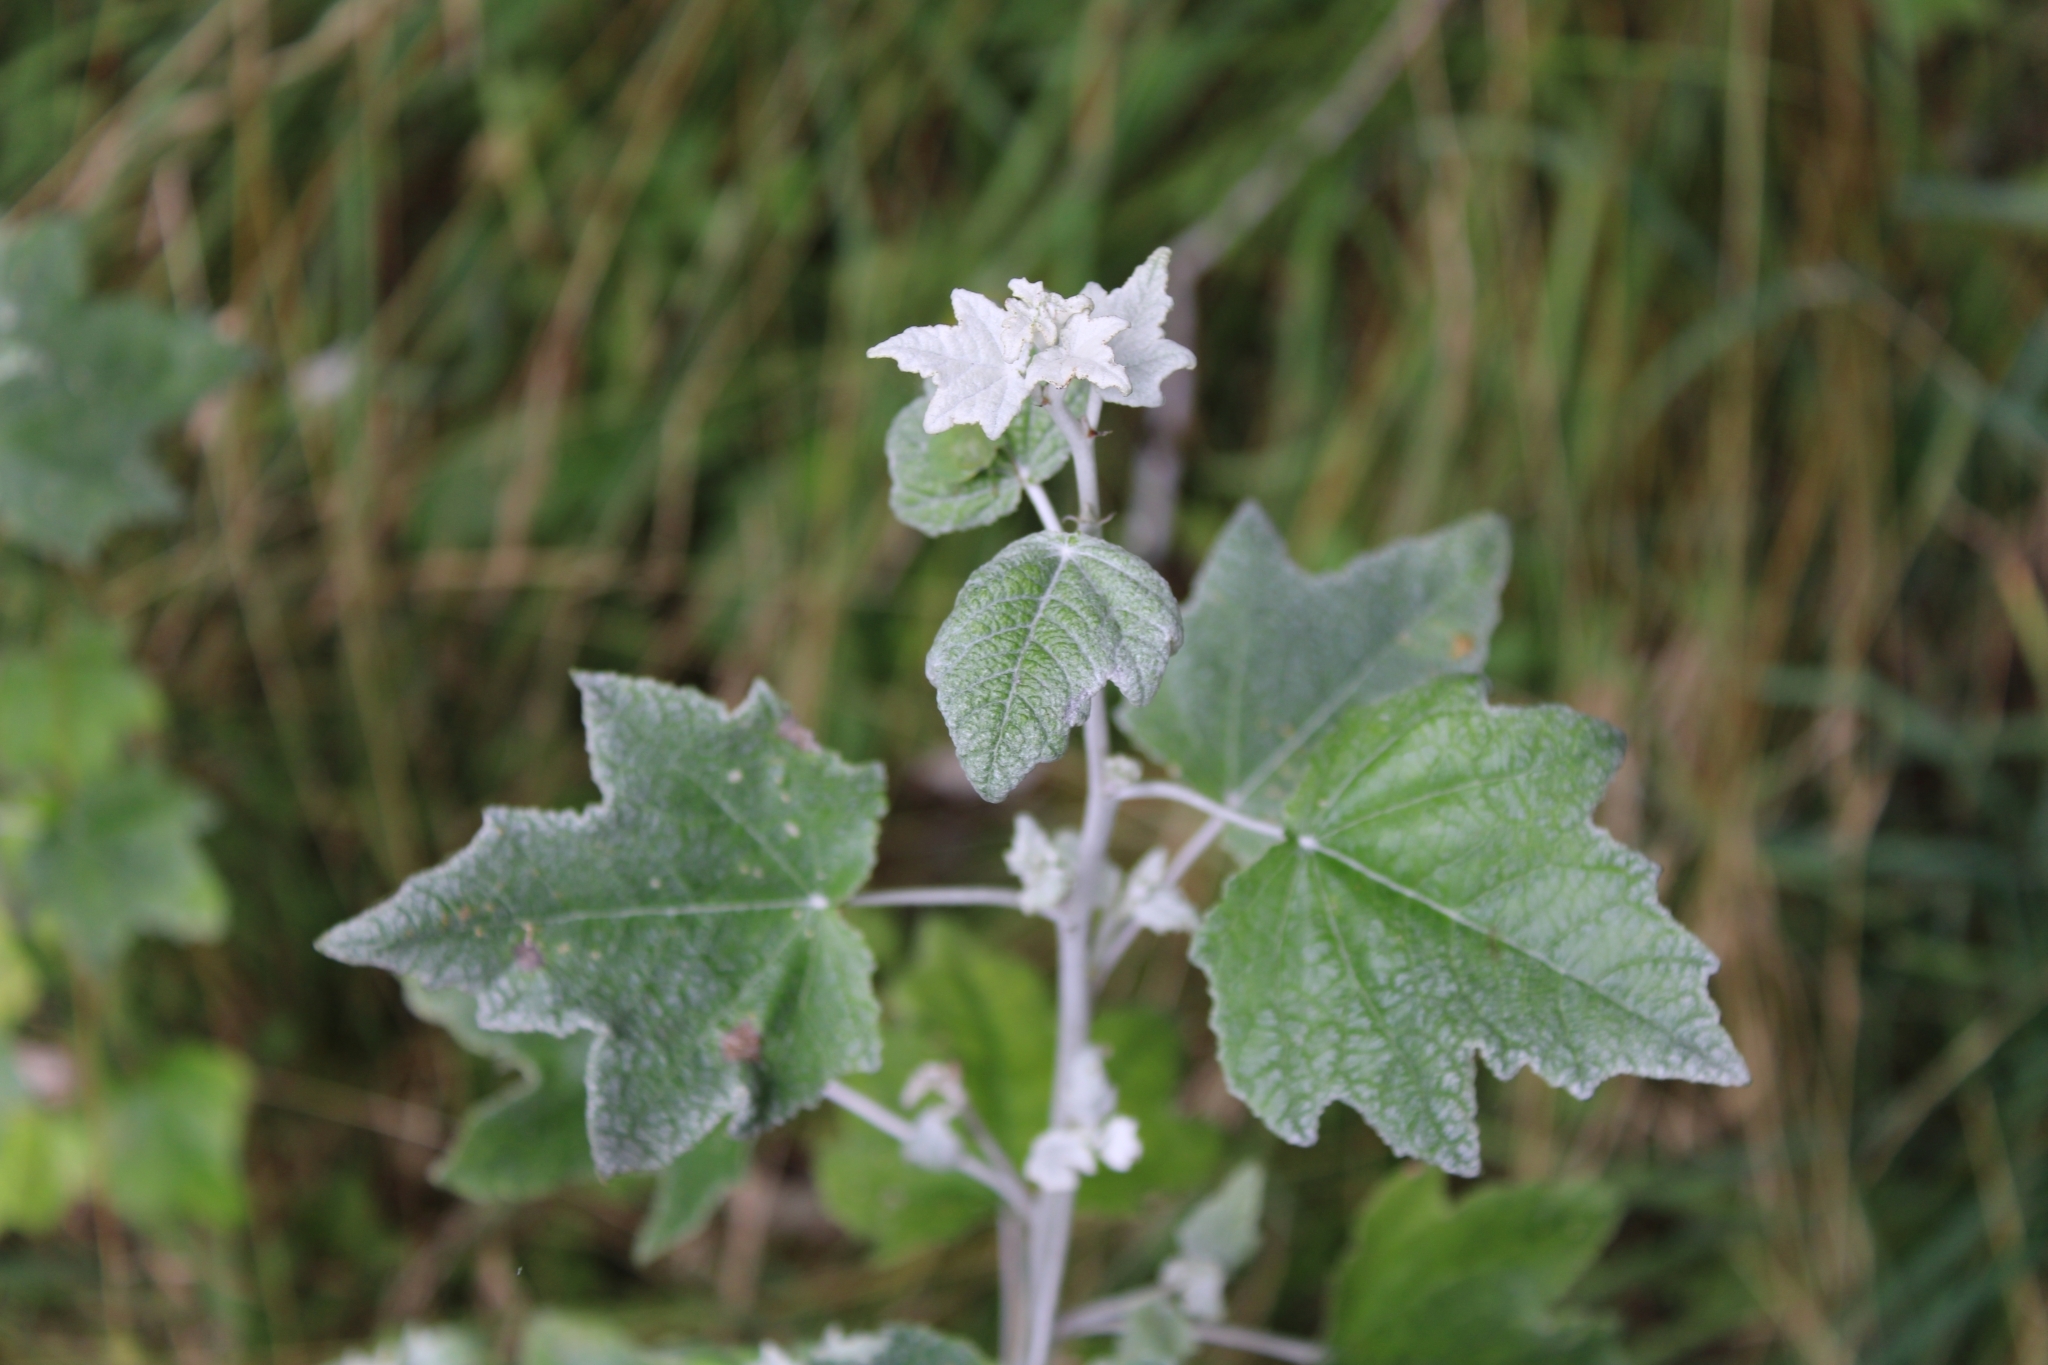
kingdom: Plantae
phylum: Tracheophyta
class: Magnoliopsida
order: Malpighiales
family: Salicaceae
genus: Populus
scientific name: Populus alba
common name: White poplar
